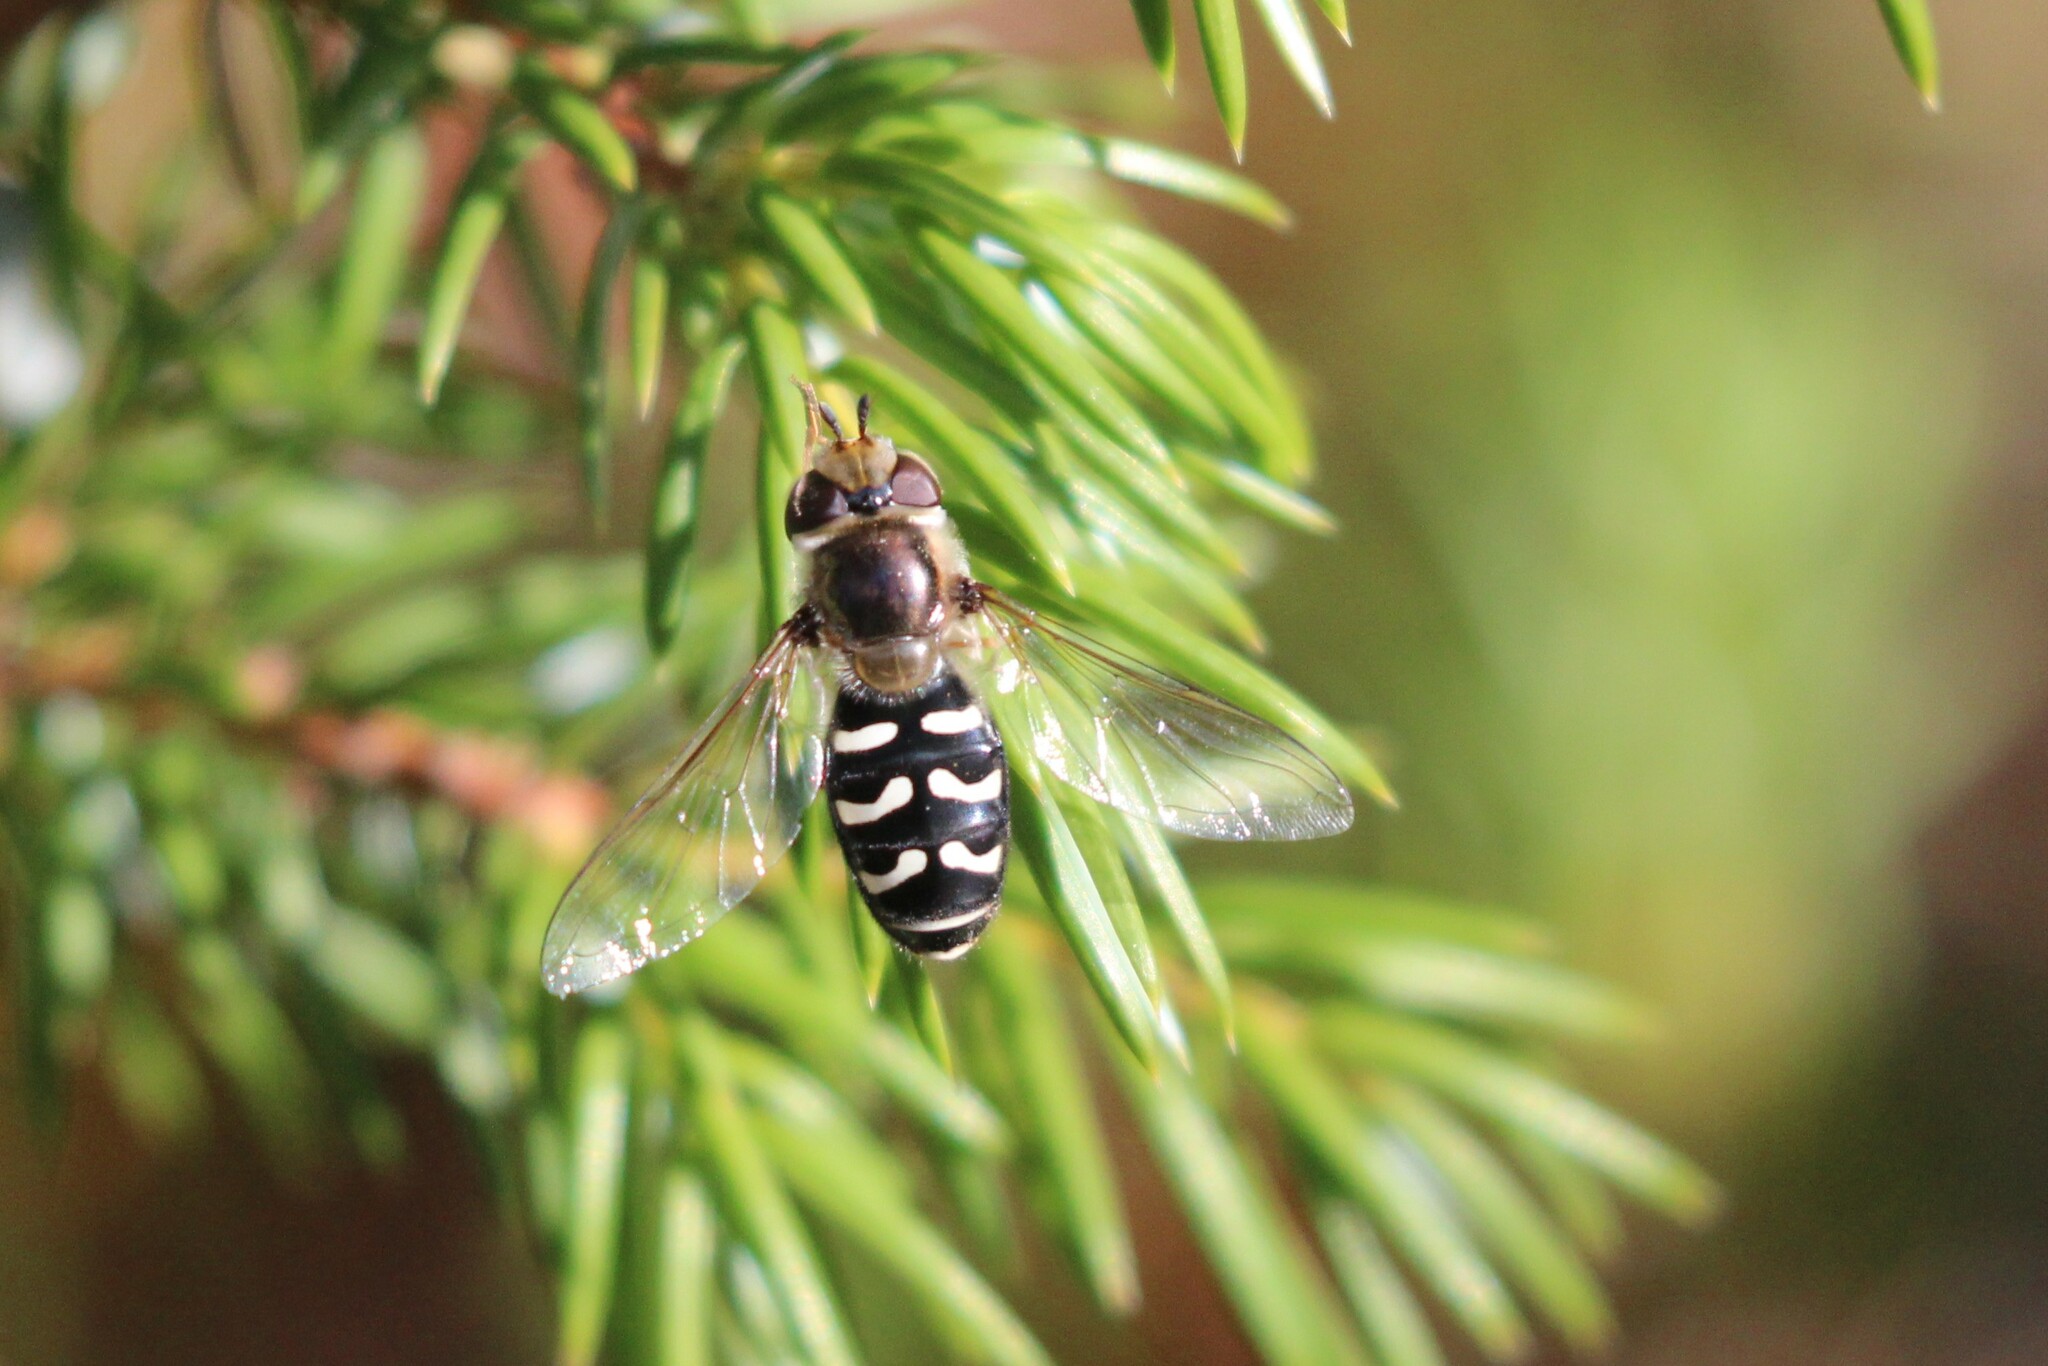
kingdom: Animalia
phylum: Arthropoda
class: Insecta
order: Diptera
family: Syrphidae
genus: Scaeva
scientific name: Scaeva affinis
